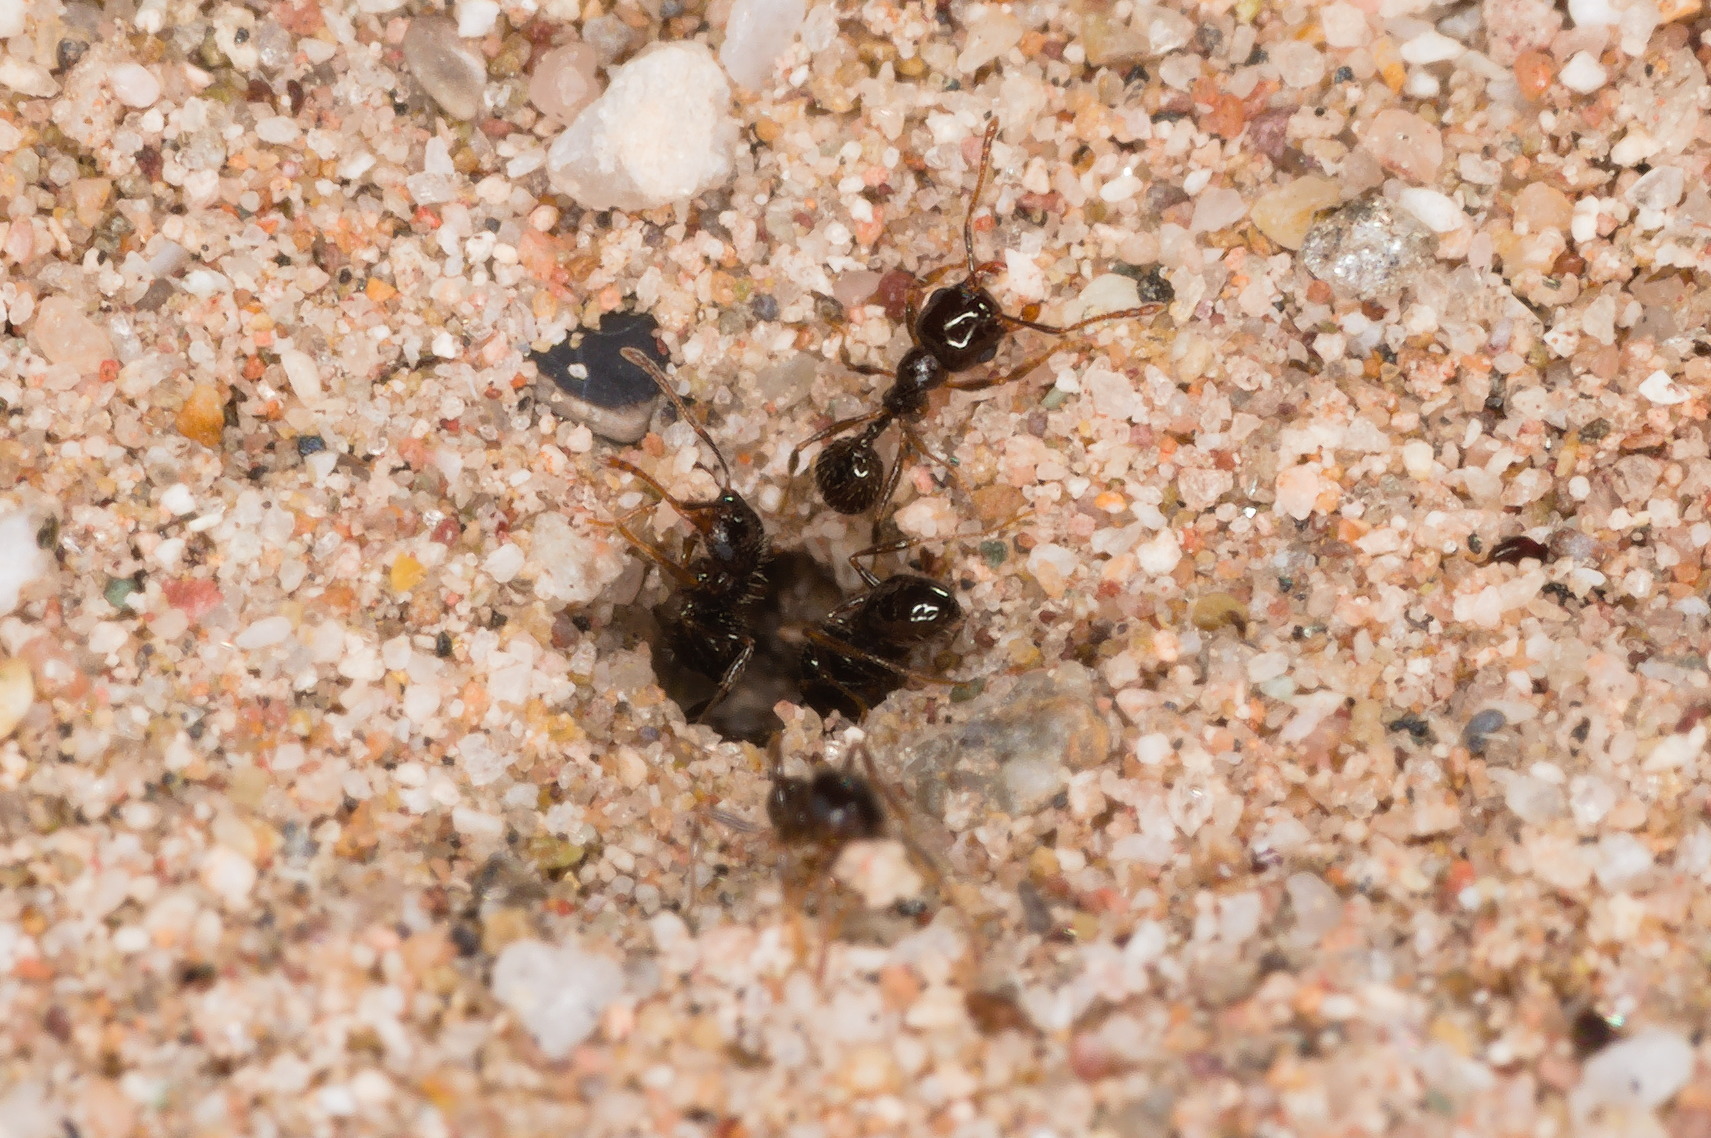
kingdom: Animalia
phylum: Arthropoda
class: Insecta
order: Hymenoptera
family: Formicidae
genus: Pheidole
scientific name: Pheidole xerophila
